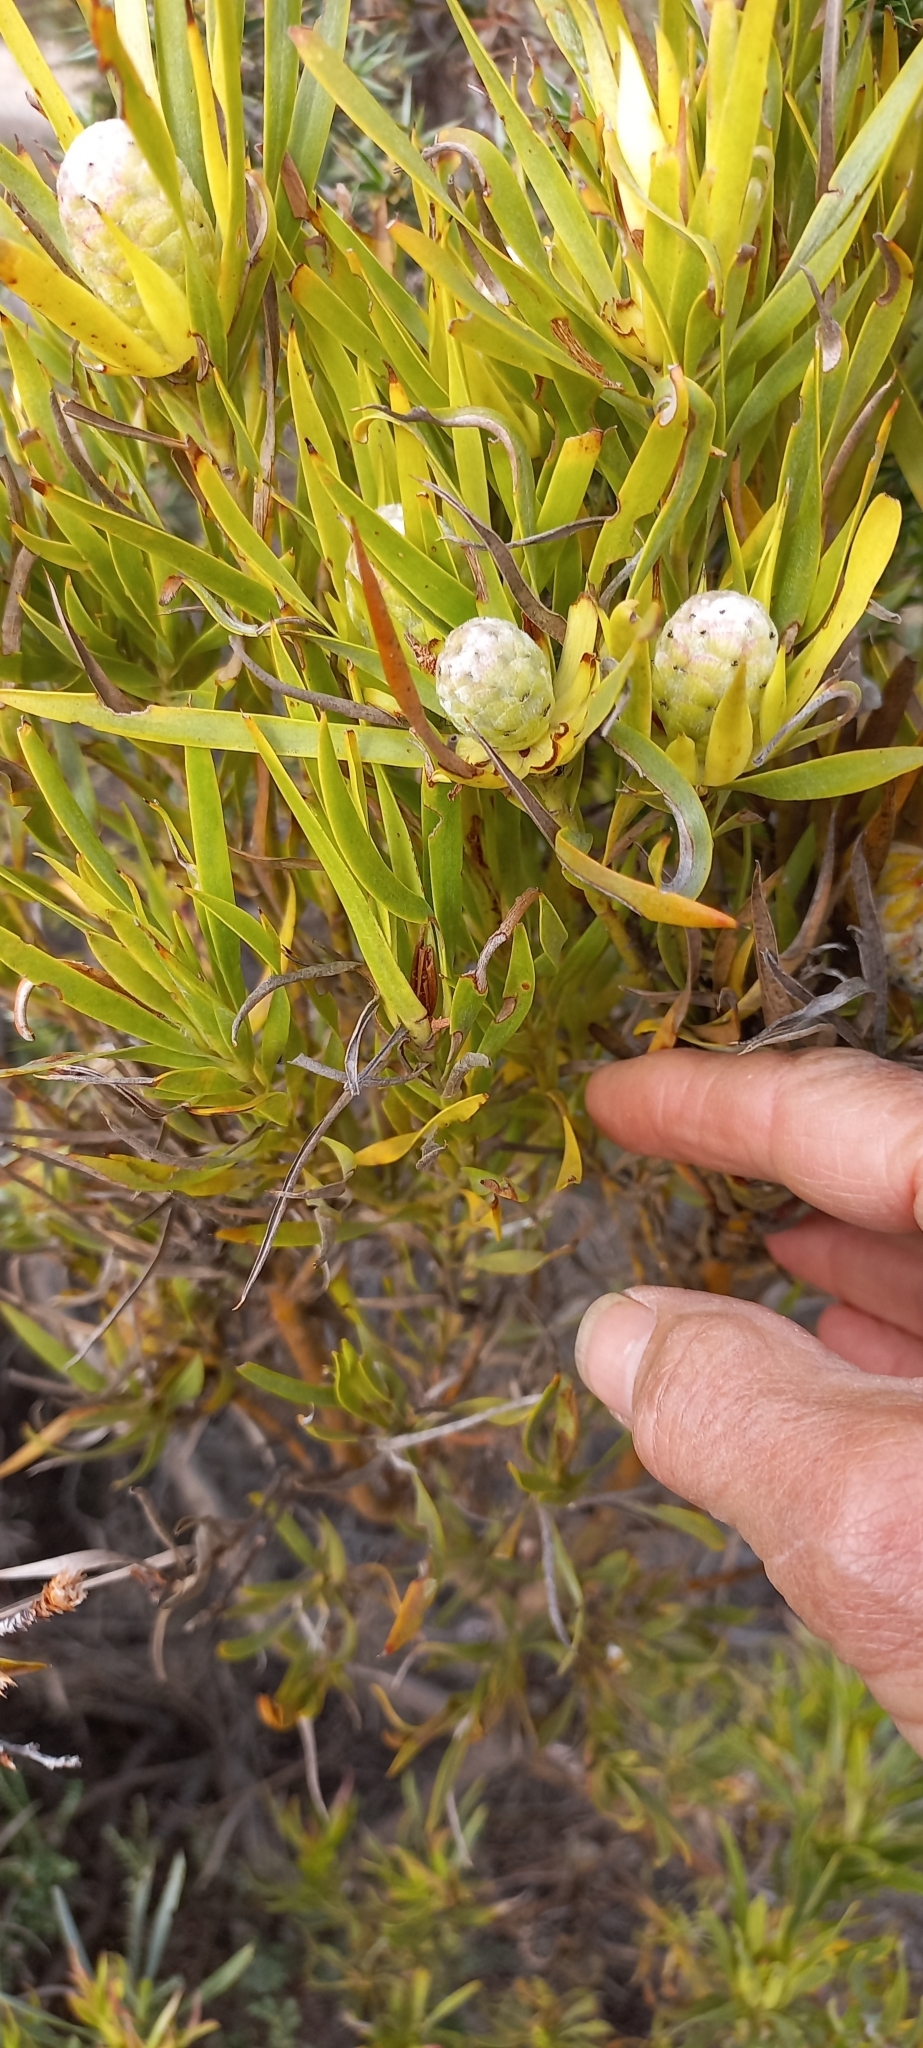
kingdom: Plantae
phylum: Tracheophyta
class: Magnoliopsida
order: Proteales
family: Proteaceae
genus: Leucadendron
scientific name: Leucadendron xanthoconus
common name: Sickle-leaf conebush
